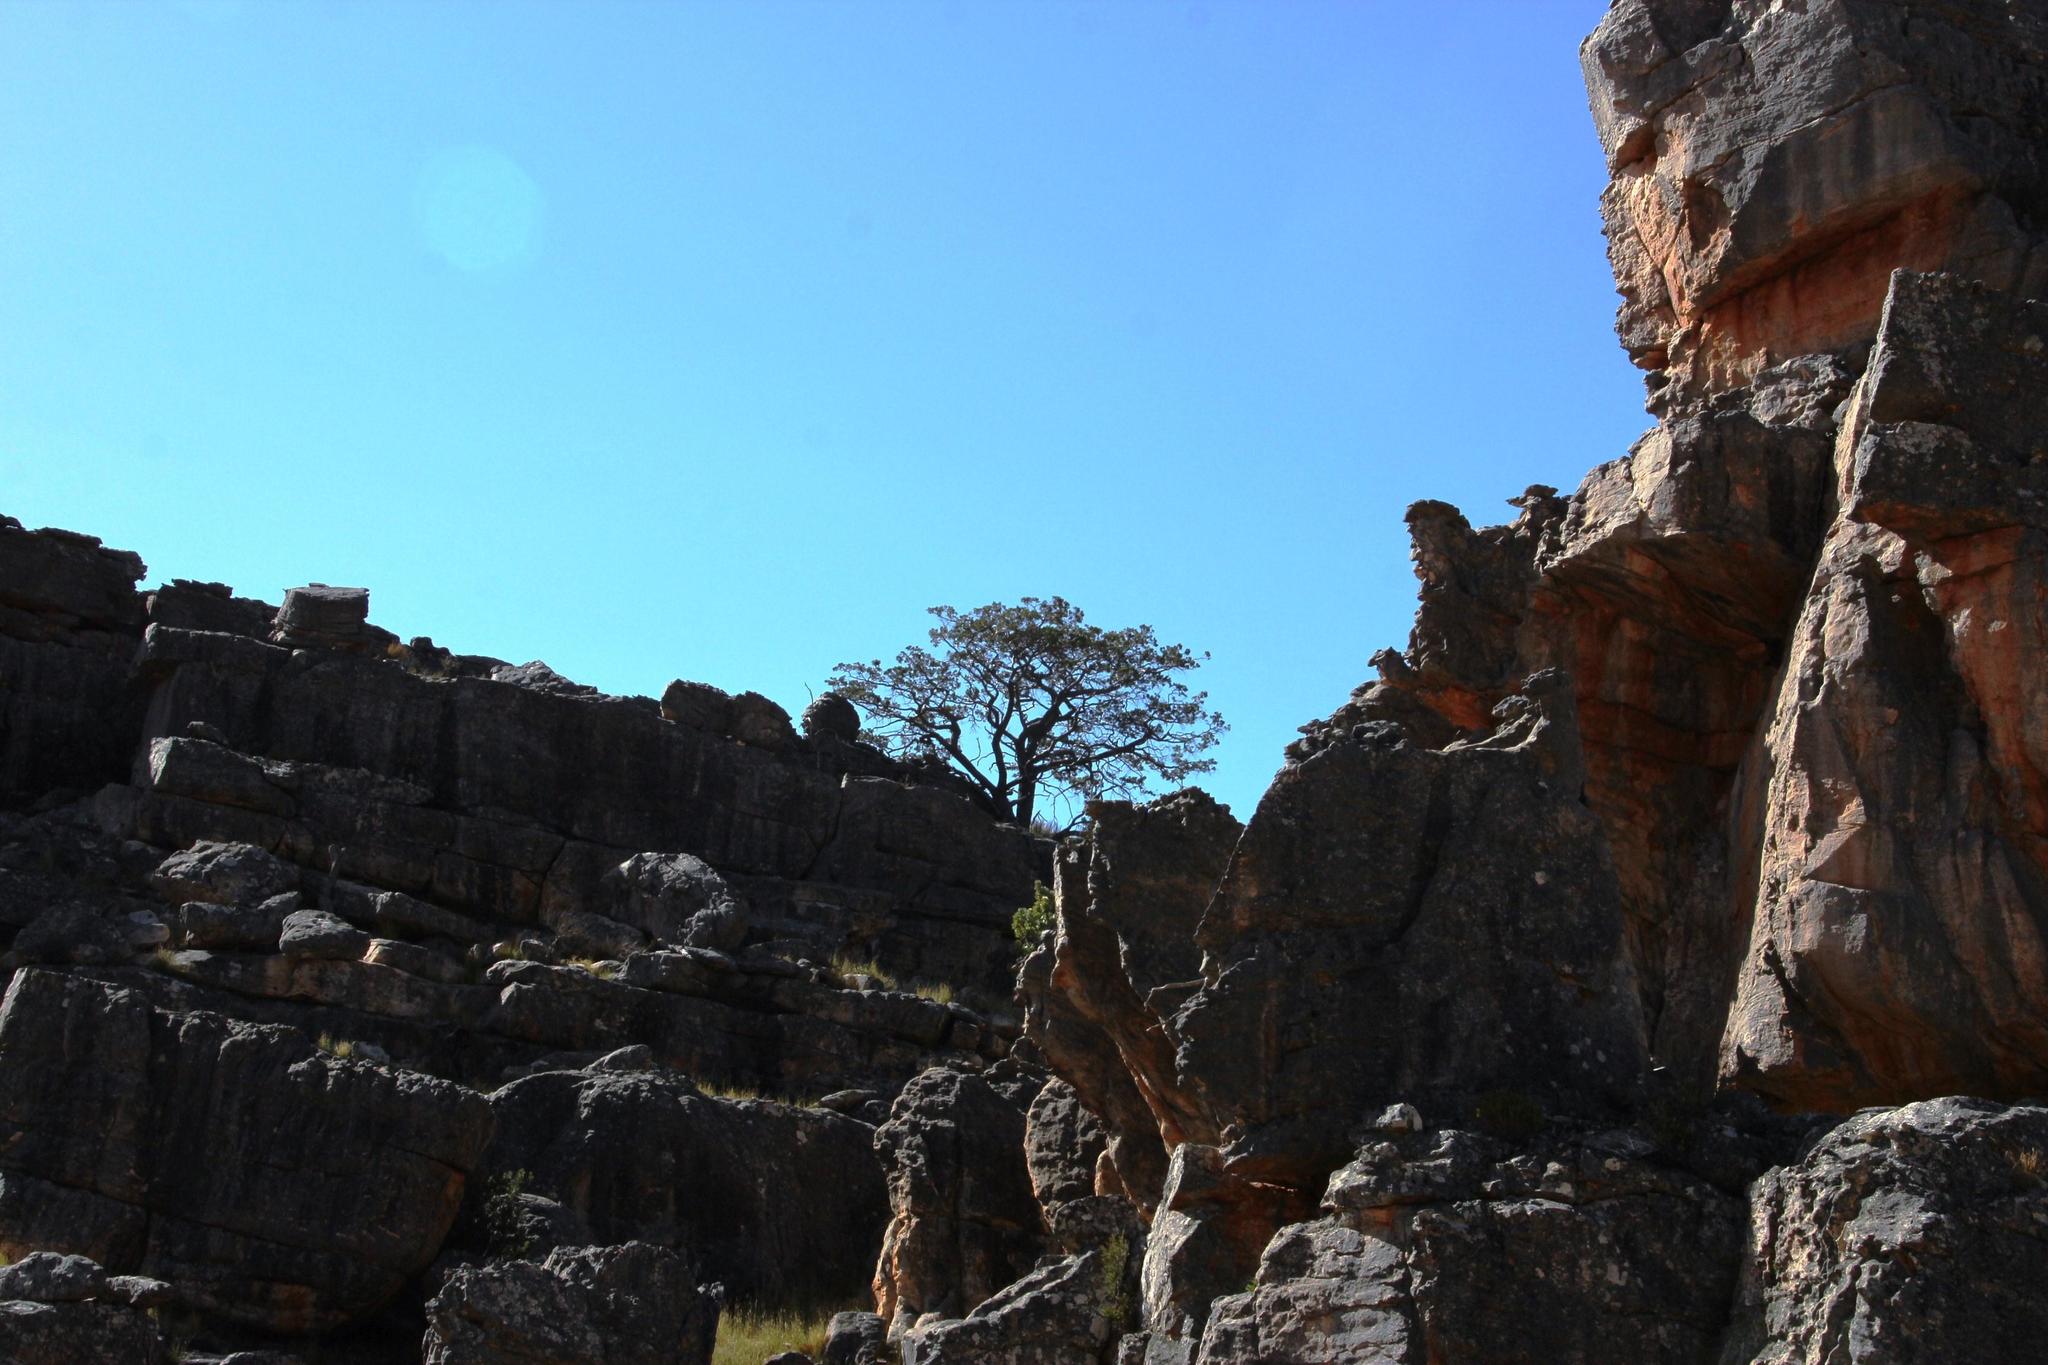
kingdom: Plantae
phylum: Tracheophyta
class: Pinopsida
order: Pinales
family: Cupressaceae
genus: Widdringtonia
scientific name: Widdringtonia nodiflora
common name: Cape cypress
